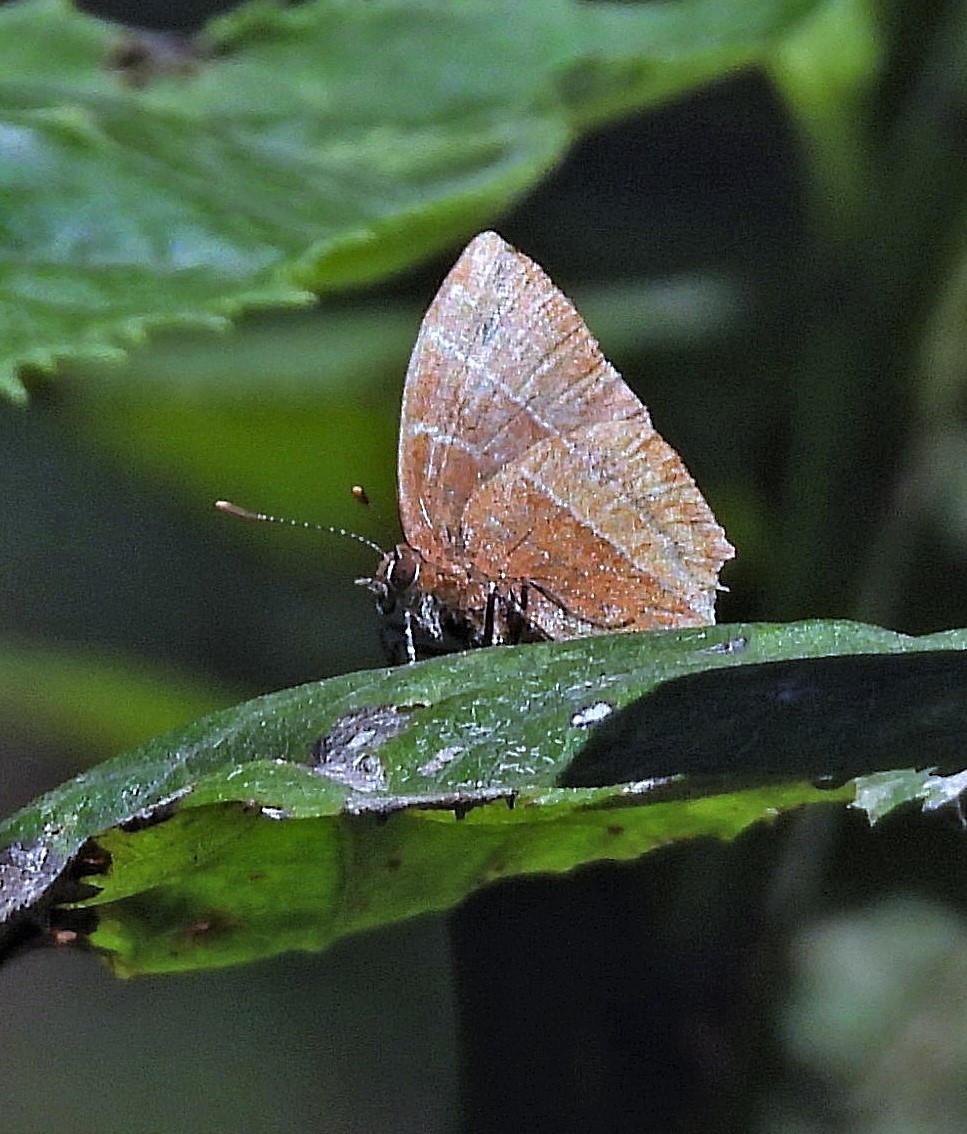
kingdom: Animalia
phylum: Arthropoda
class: Insecta
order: Lepidoptera
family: Lycaenidae
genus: Micandra
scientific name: Micandra sylvana
